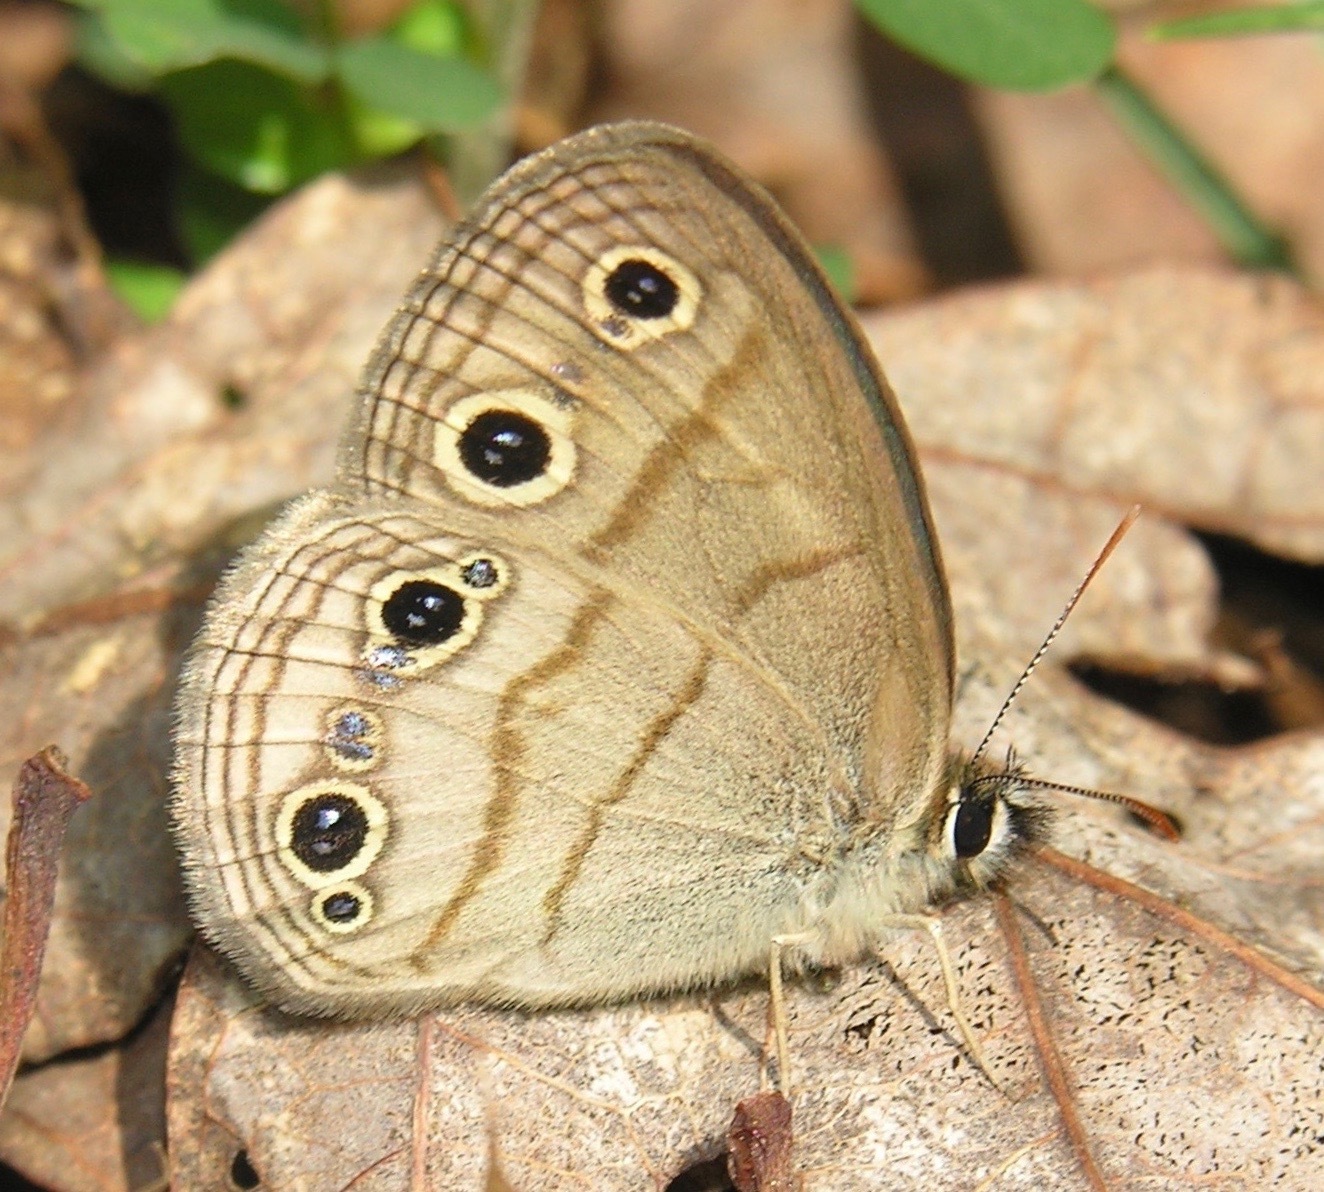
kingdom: Animalia
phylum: Arthropoda
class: Insecta
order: Lepidoptera
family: Nymphalidae
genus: Euptychia
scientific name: Euptychia cymela
